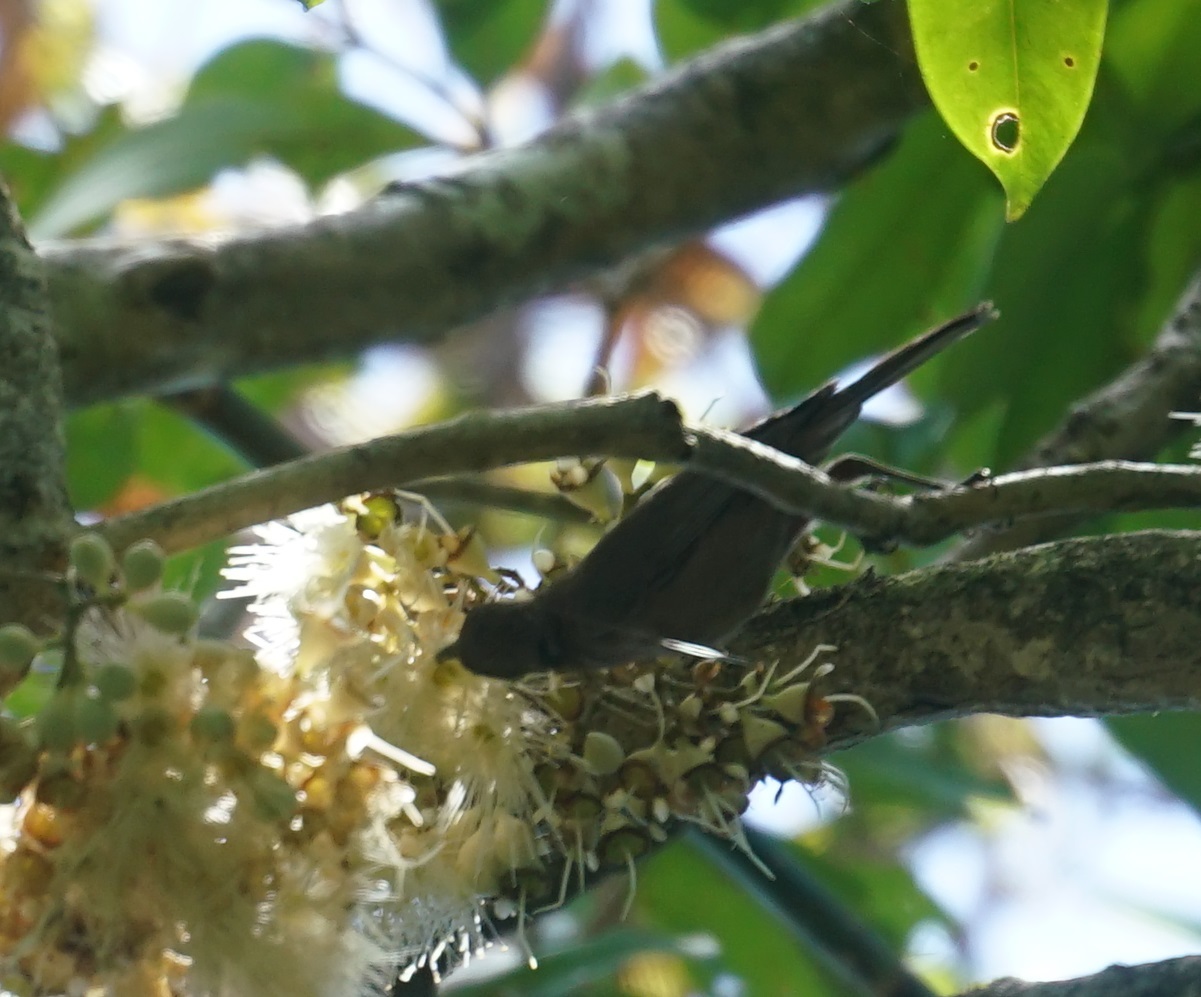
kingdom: Animalia
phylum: Chordata
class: Aves
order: Passeriformes
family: Meliphagidae
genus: Myzomela
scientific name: Myzomela obscura
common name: Dusky myzomela
